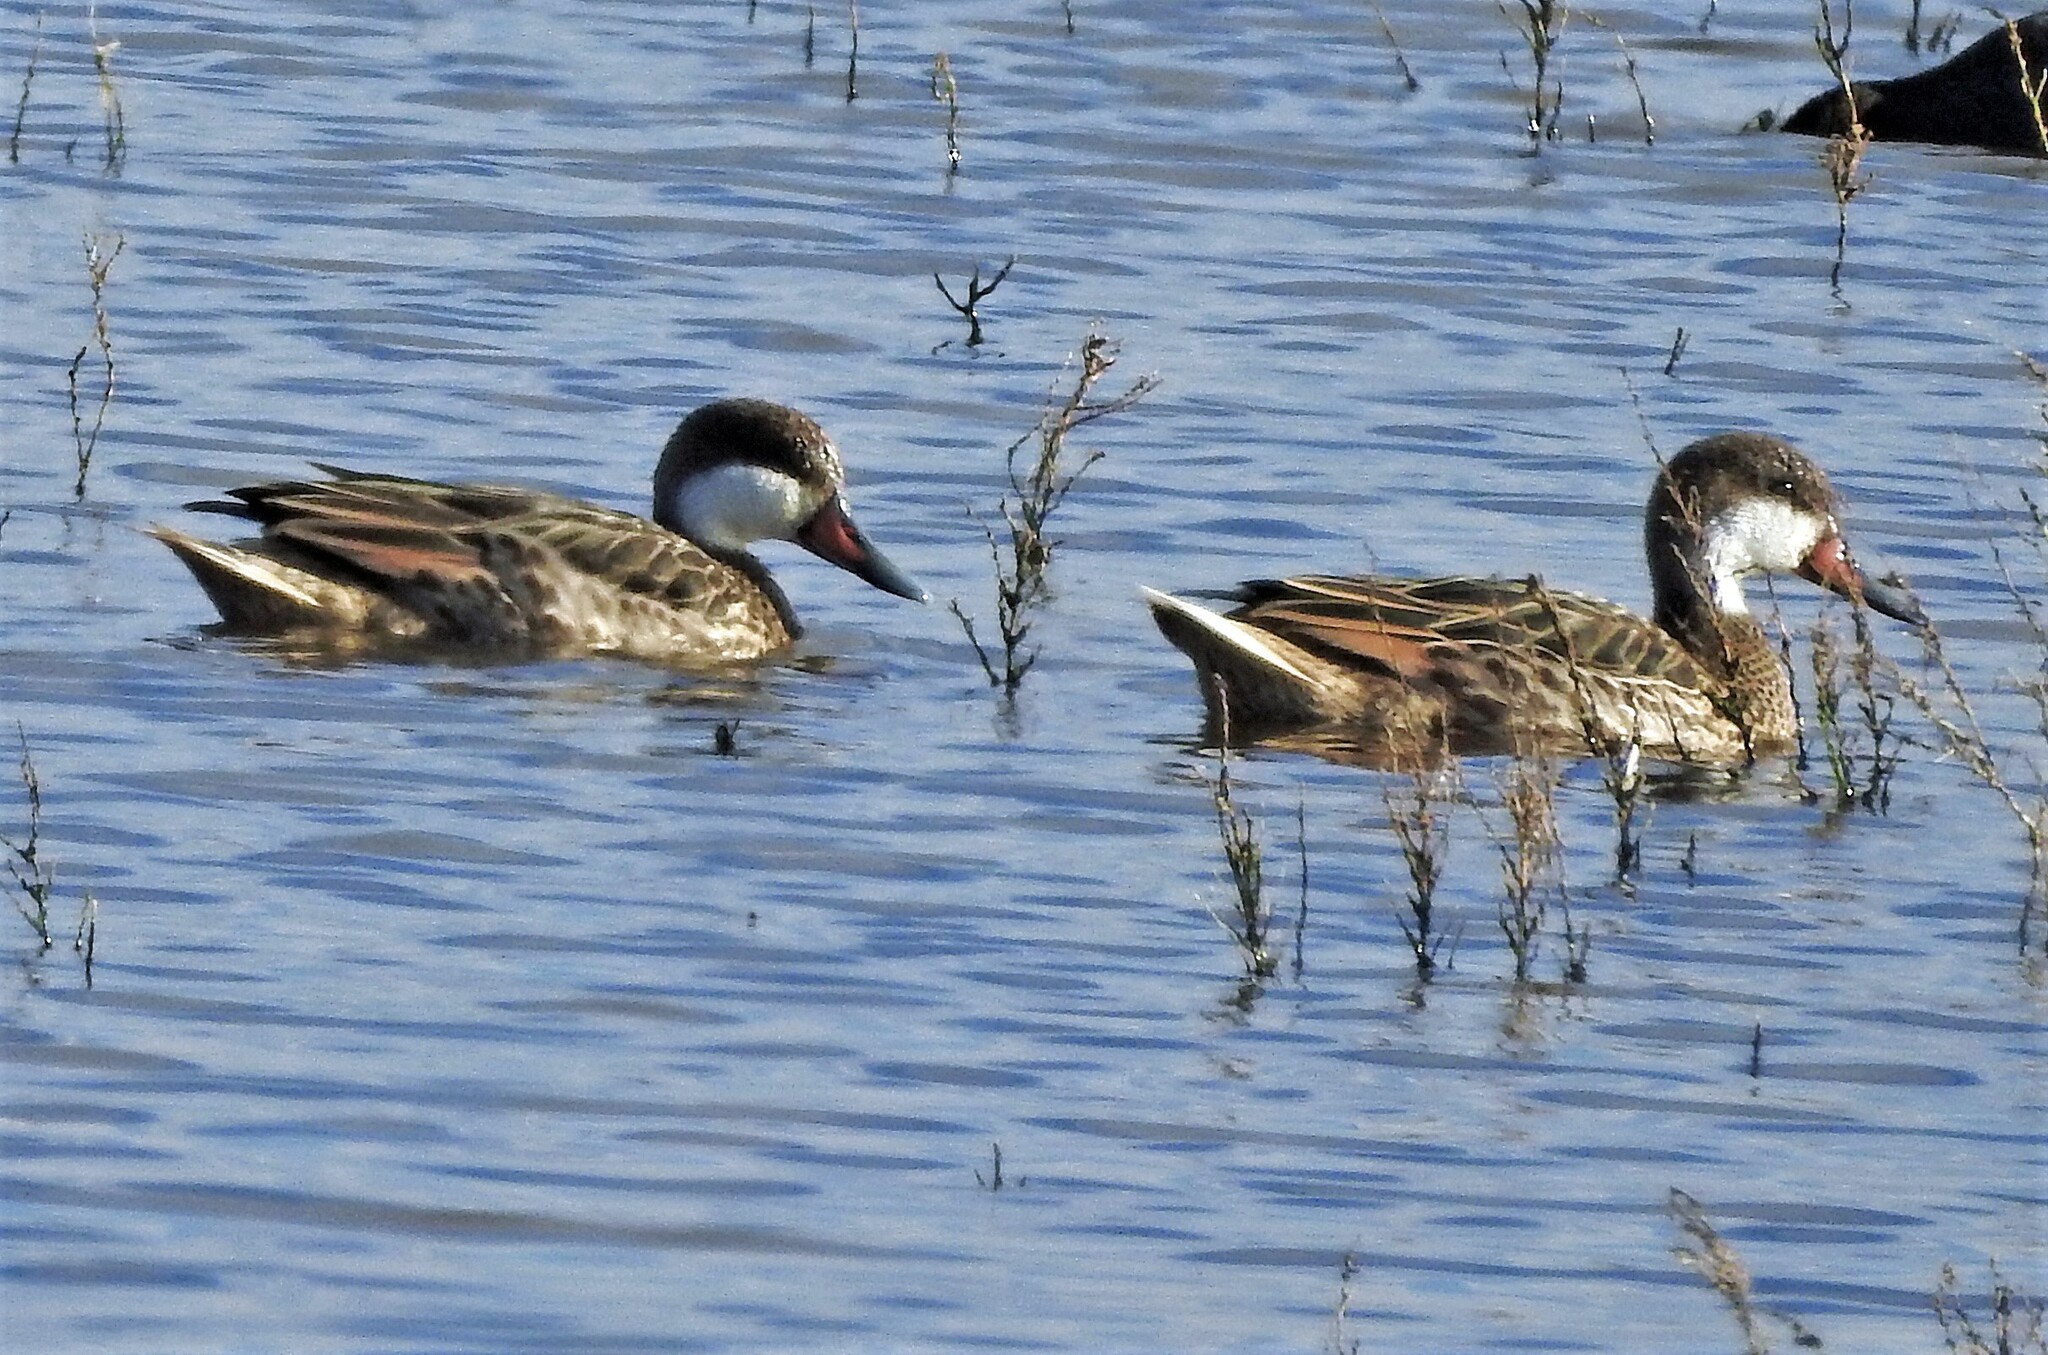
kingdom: Animalia
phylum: Chordata
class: Aves
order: Anseriformes
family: Anatidae
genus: Anas
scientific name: Anas bahamensis
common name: White-cheeked pintail
